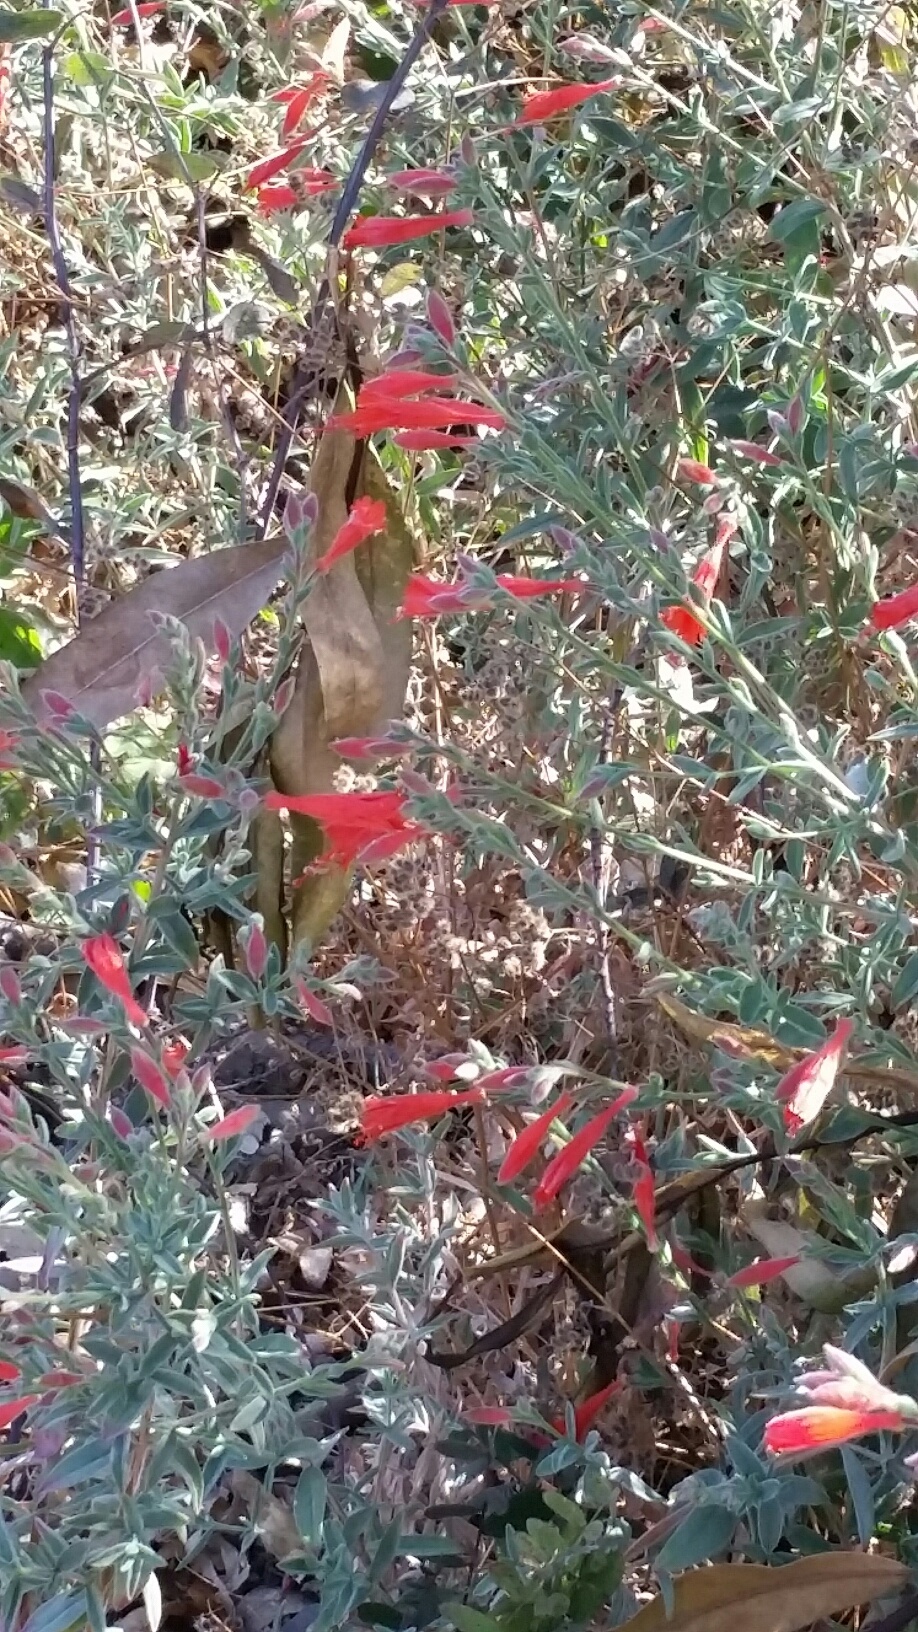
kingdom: Plantae
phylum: Tracheophyta
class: Magnoliopsida
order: Myrtales
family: Onagraceae
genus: Epilobium
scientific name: Epilobium canum
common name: California-fuchsia
